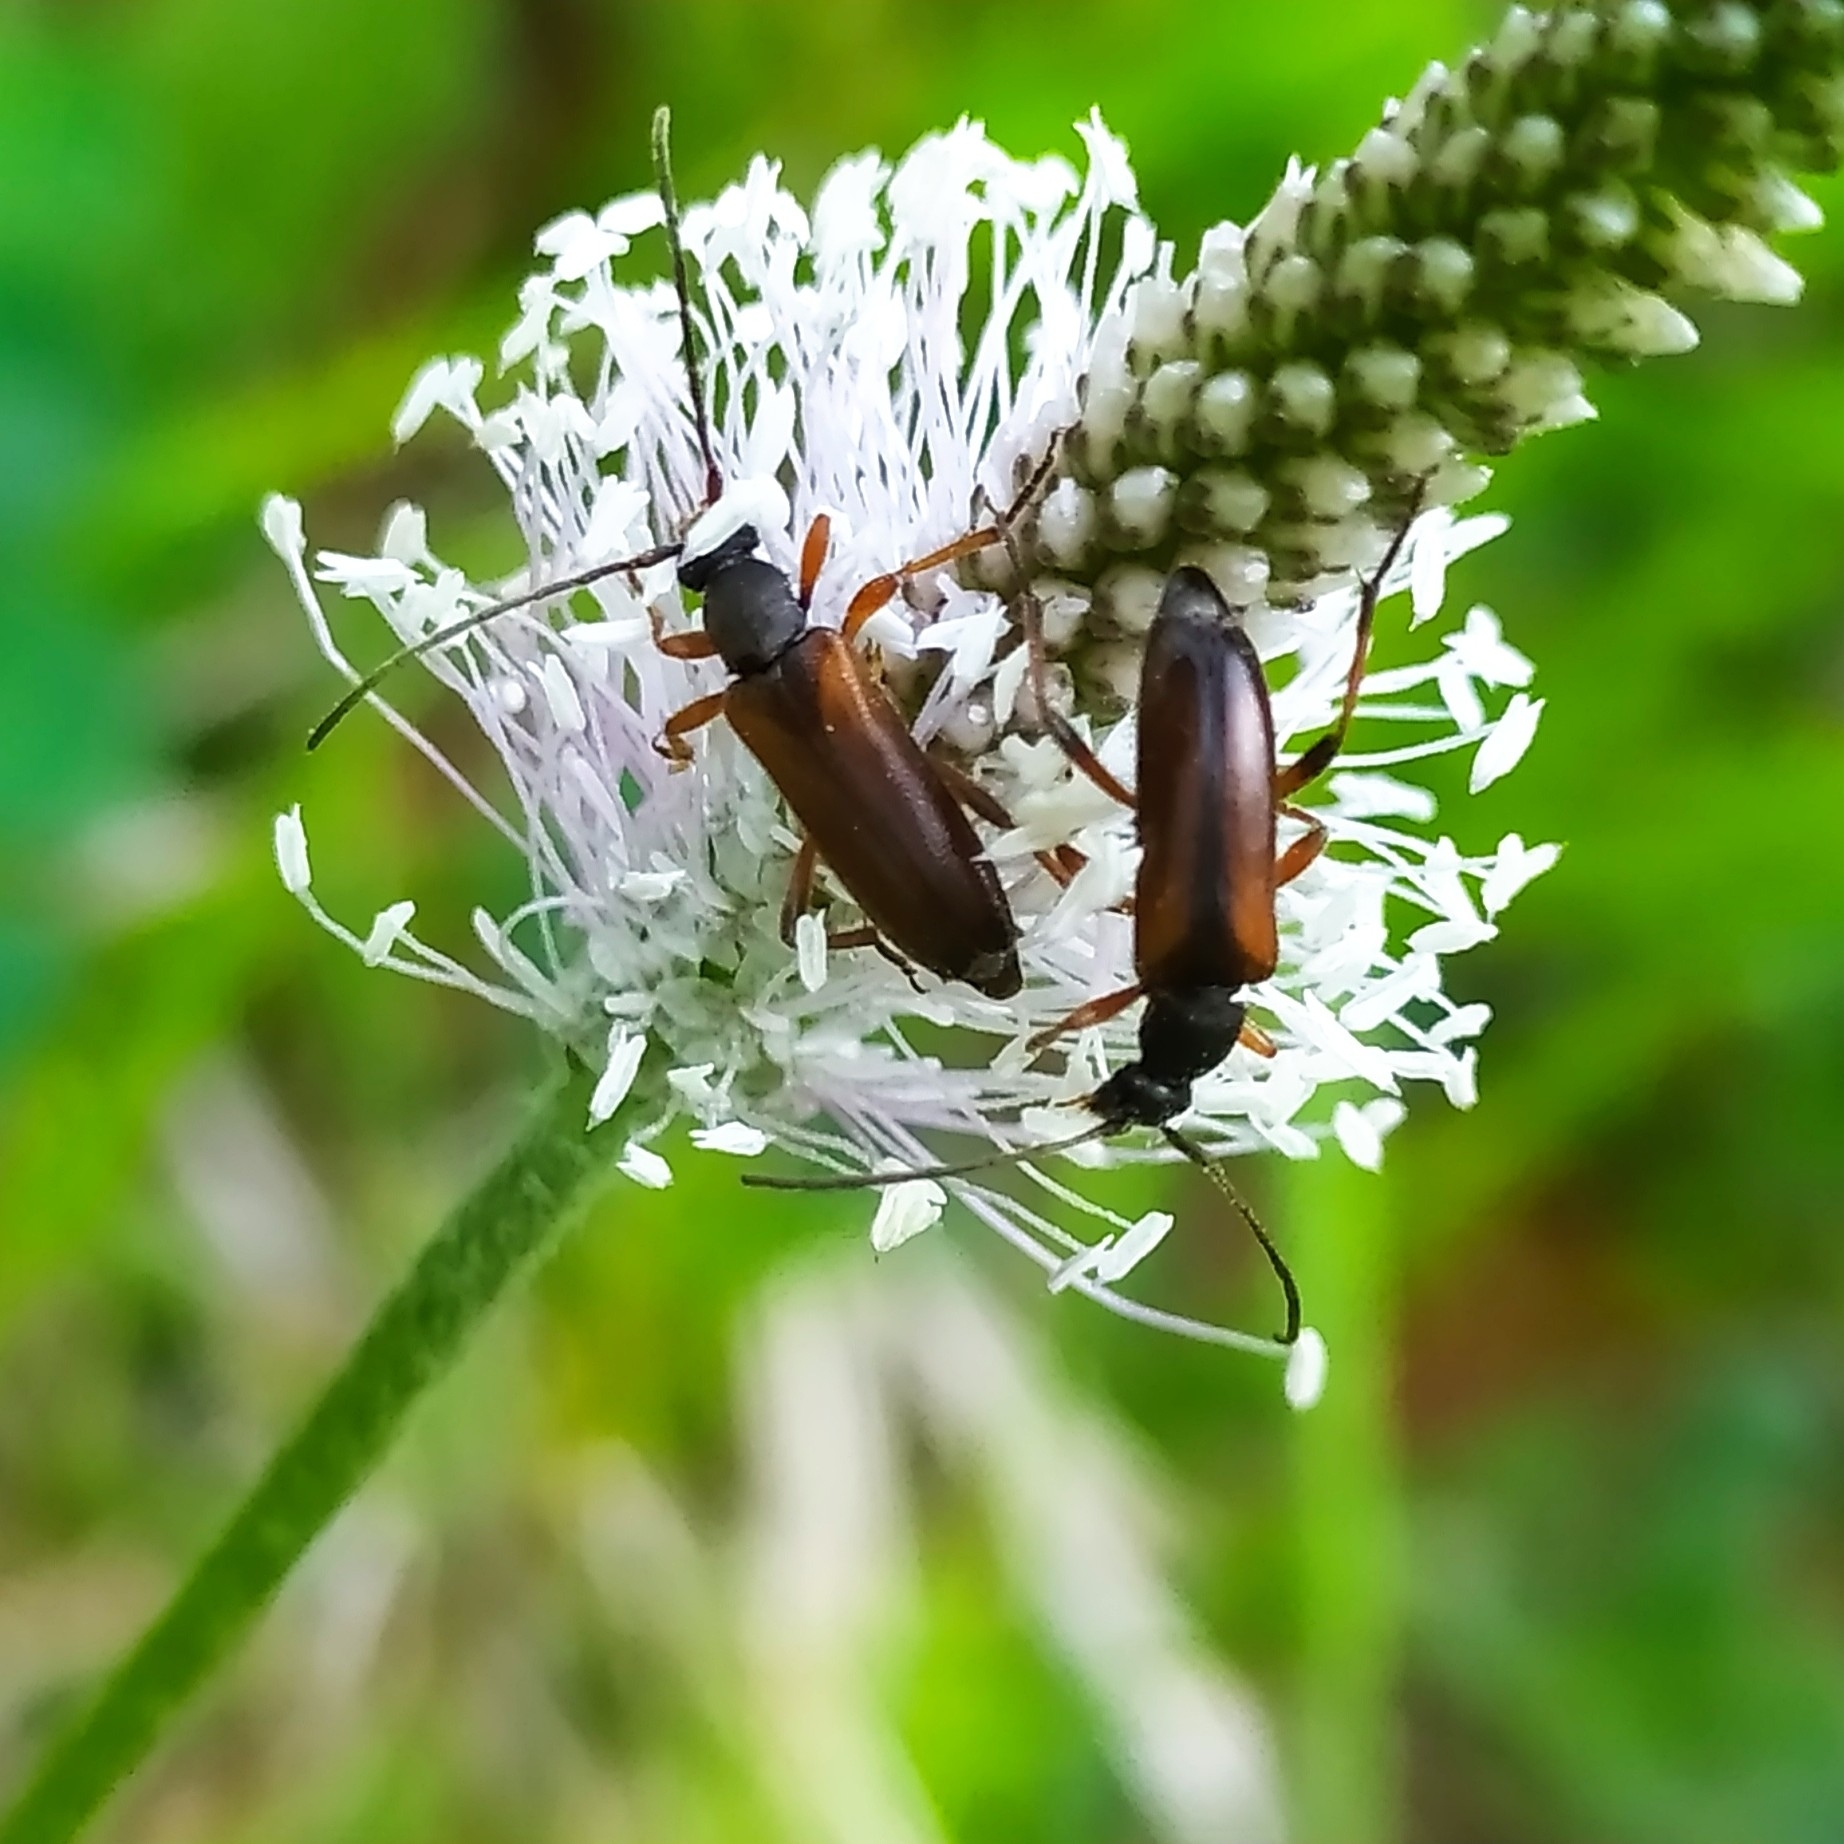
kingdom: Animalia
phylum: Arthropoda
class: Insecta
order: Coleoptera
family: Cerambycidae
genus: Alosterna
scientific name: Alosterna tabacicolor
